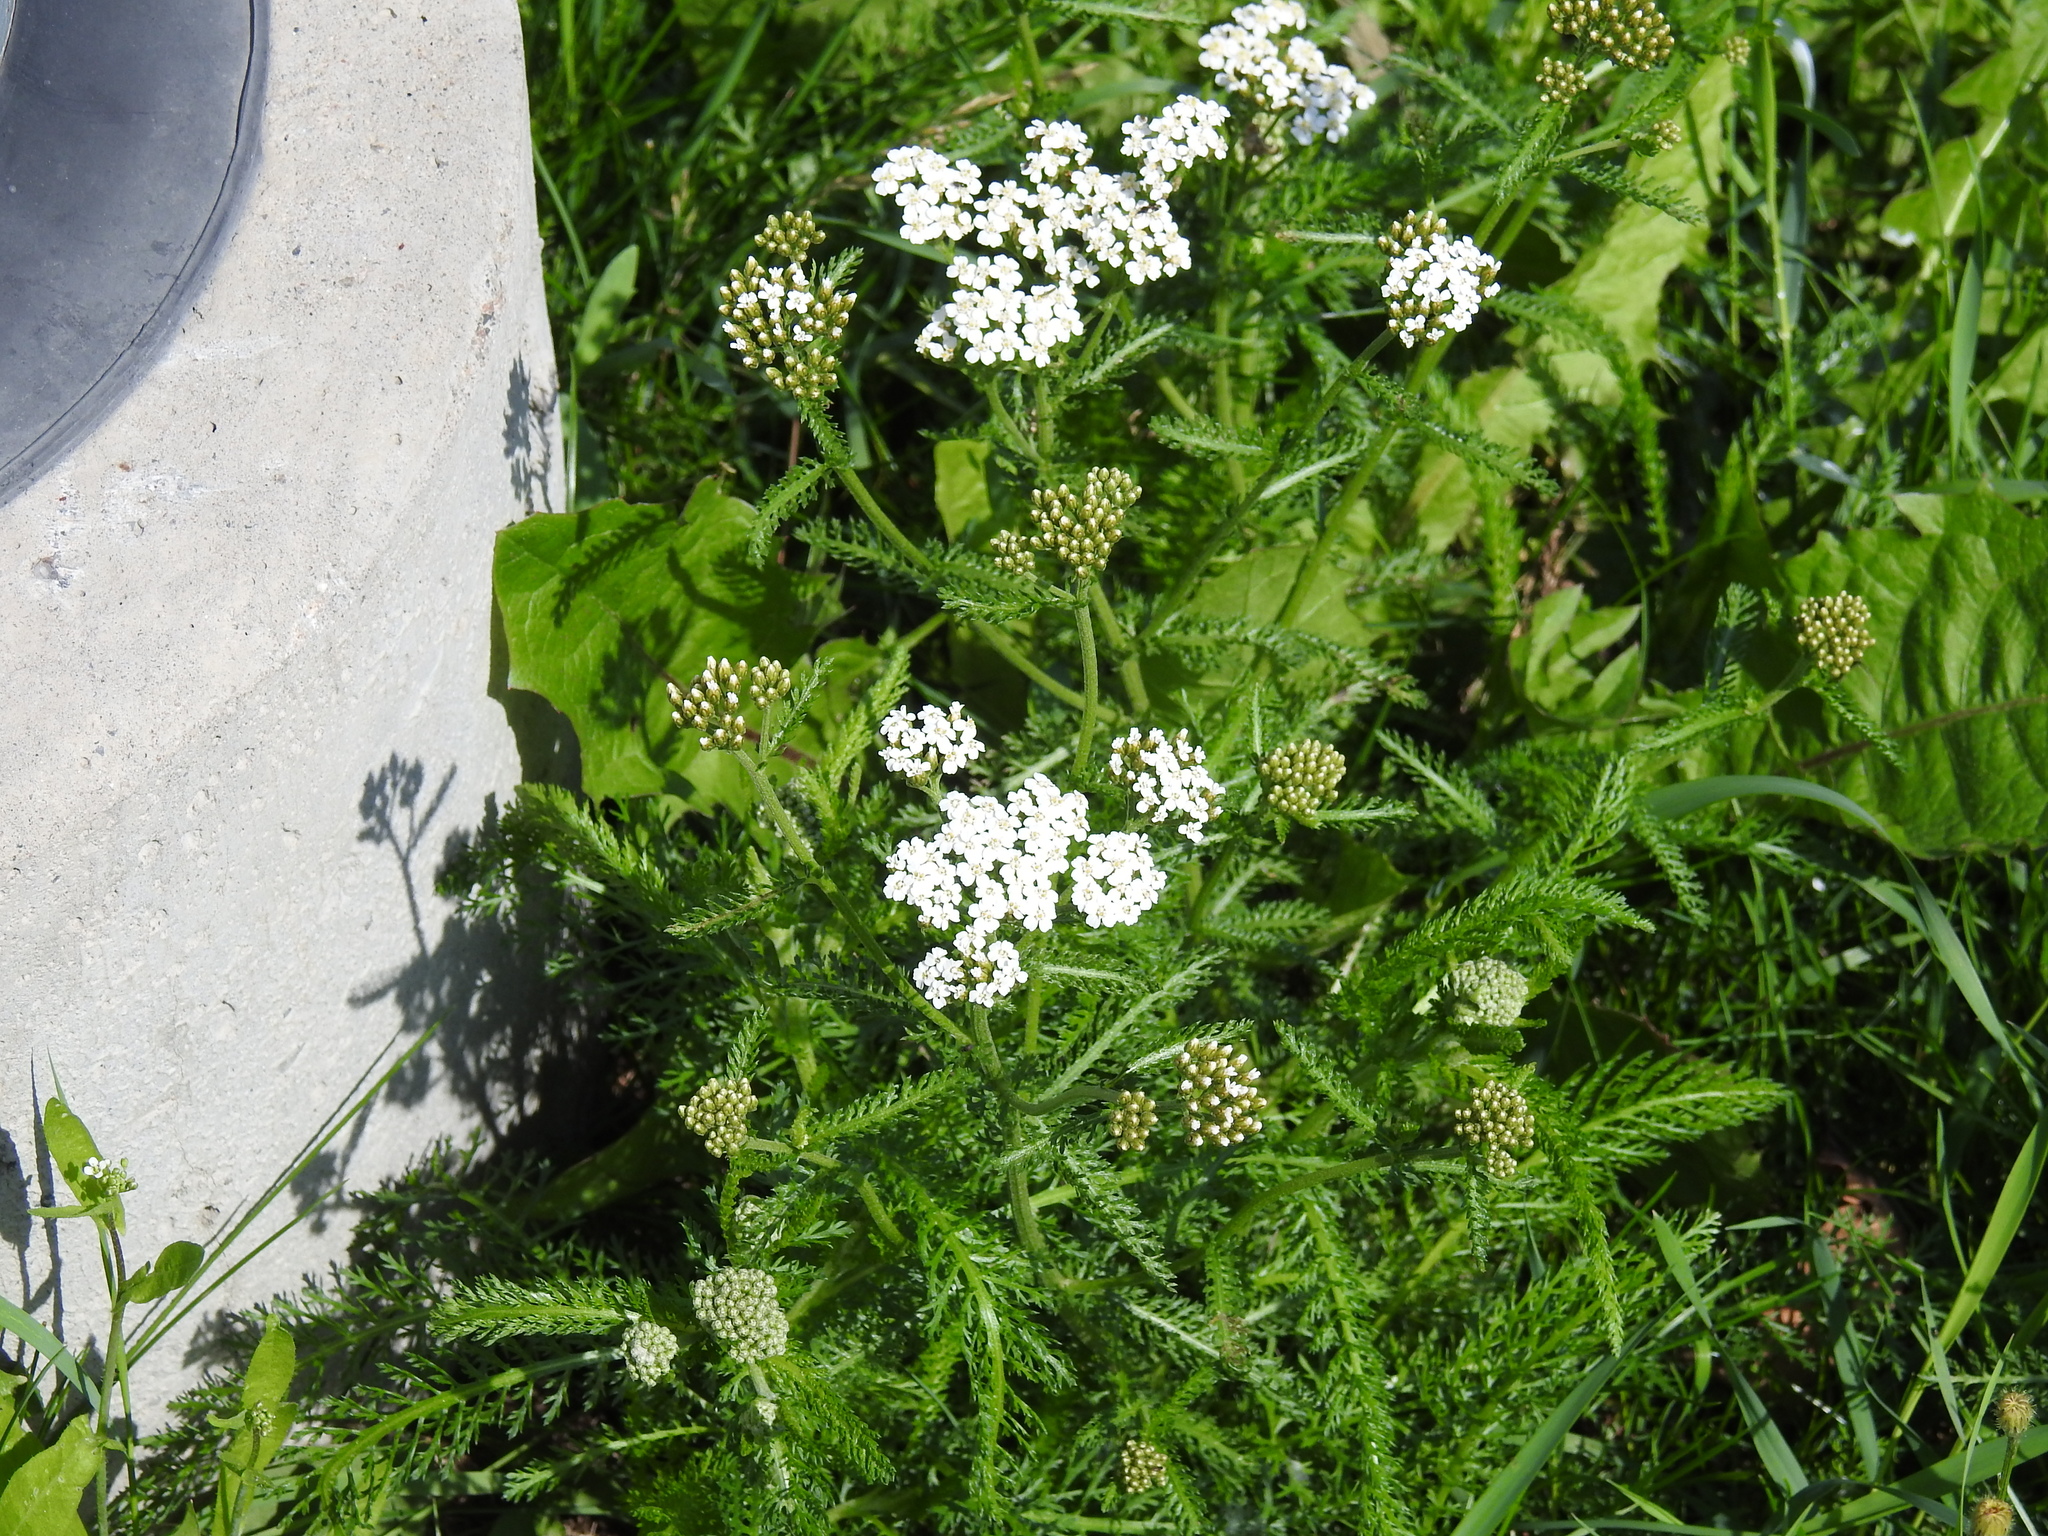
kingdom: Plantae
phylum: Tracheophyta
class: Magnoliopsida
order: Asterales
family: Asteraceae
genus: Achillea
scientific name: Achillea millefolium
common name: Yarrow
